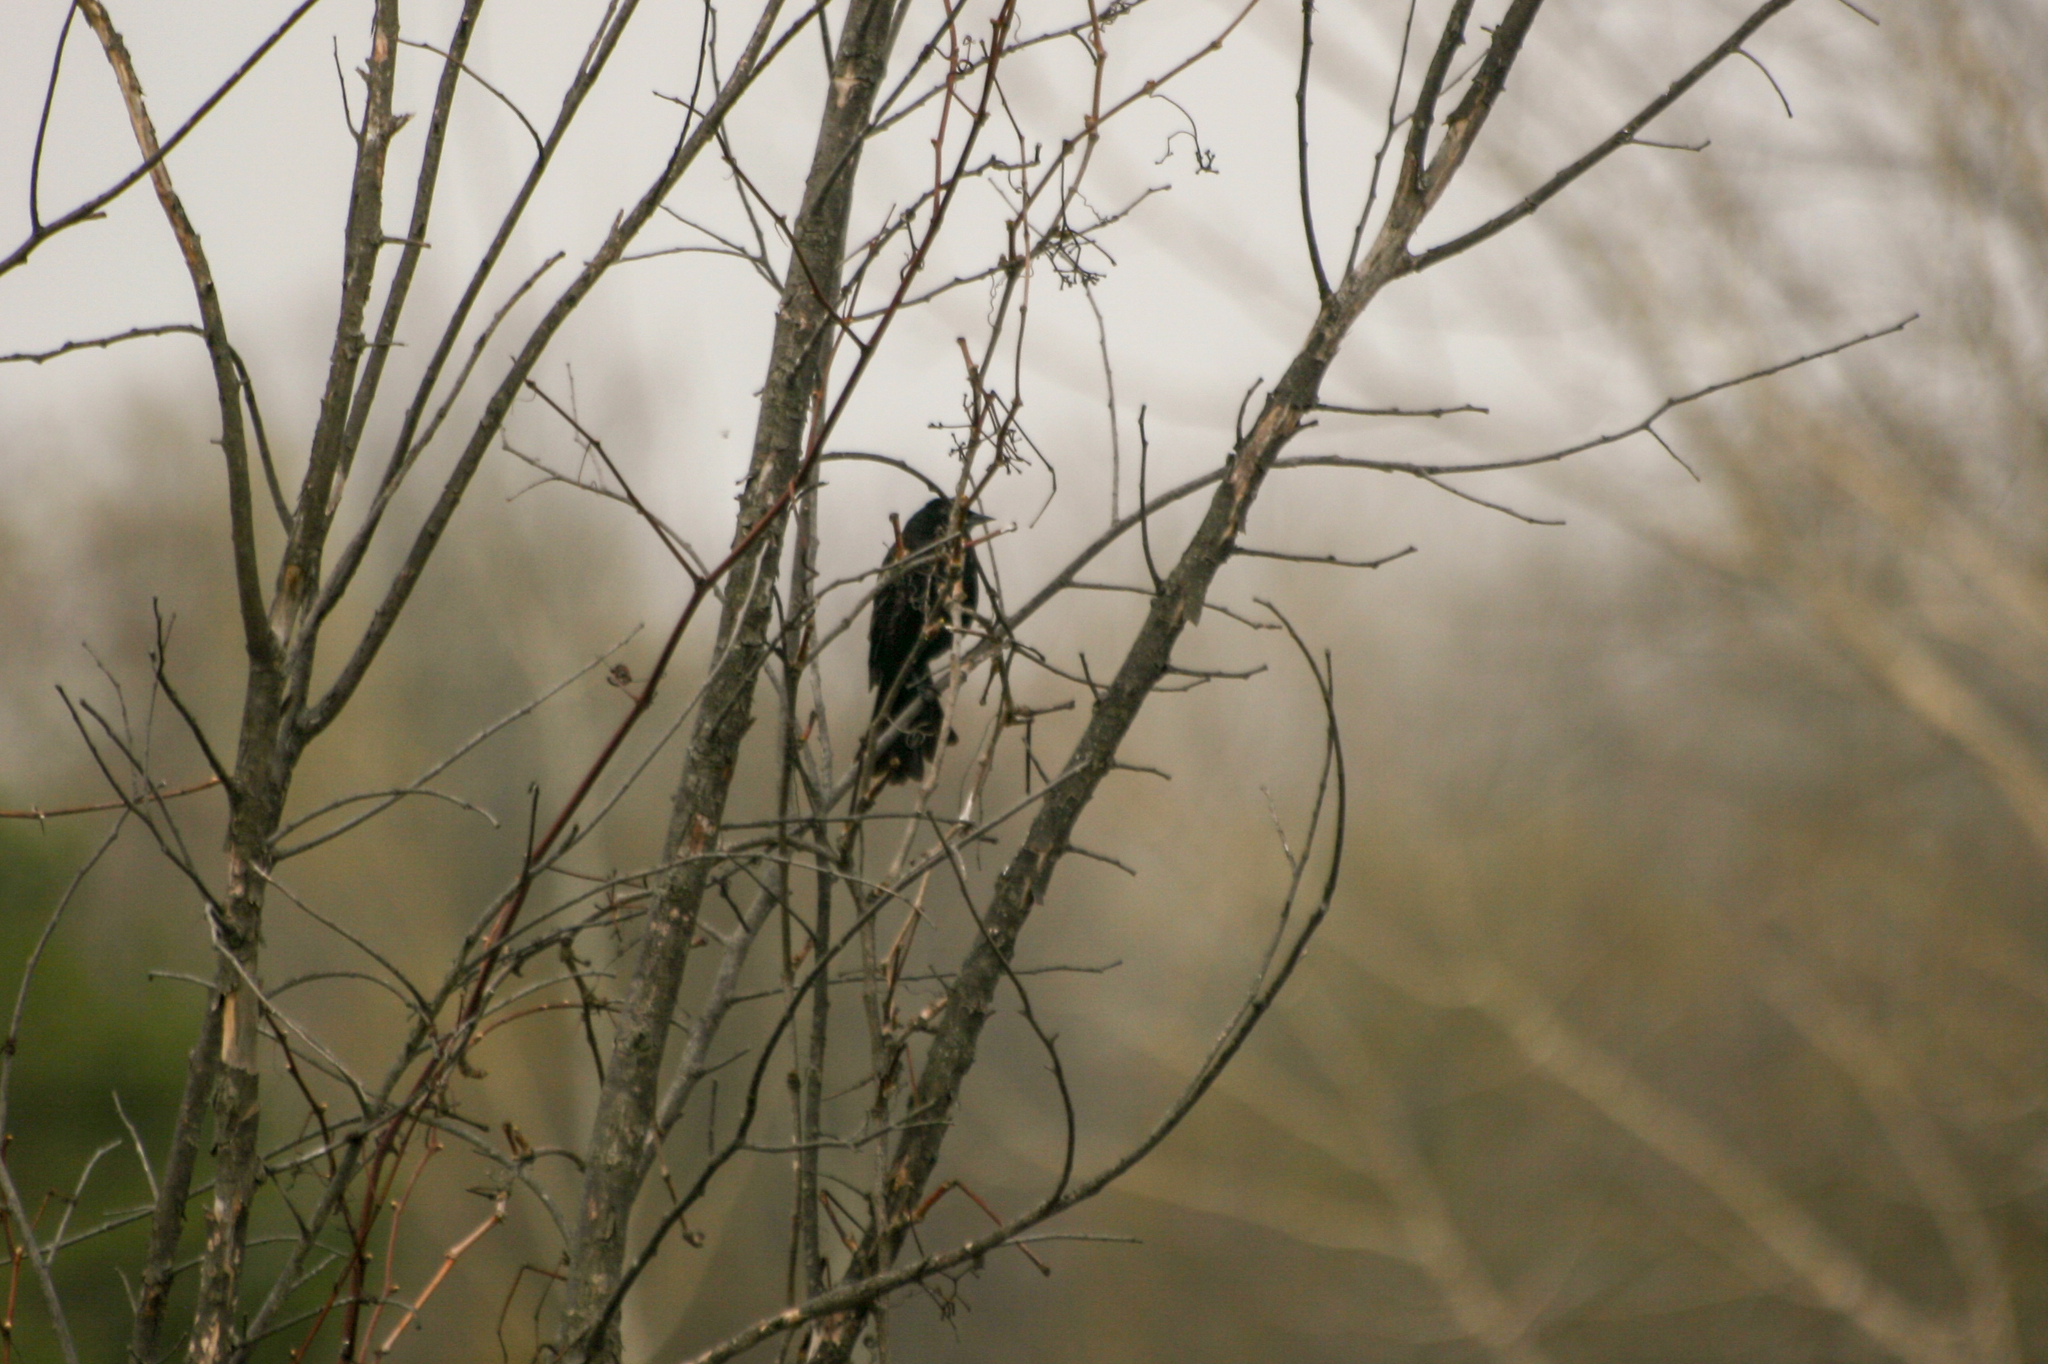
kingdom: Animalia
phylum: Chordata
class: Aves
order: Passeriformes
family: Icteridae
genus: Agelaius
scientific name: Agelaius phoeniceus
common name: Red-winged blackbird
